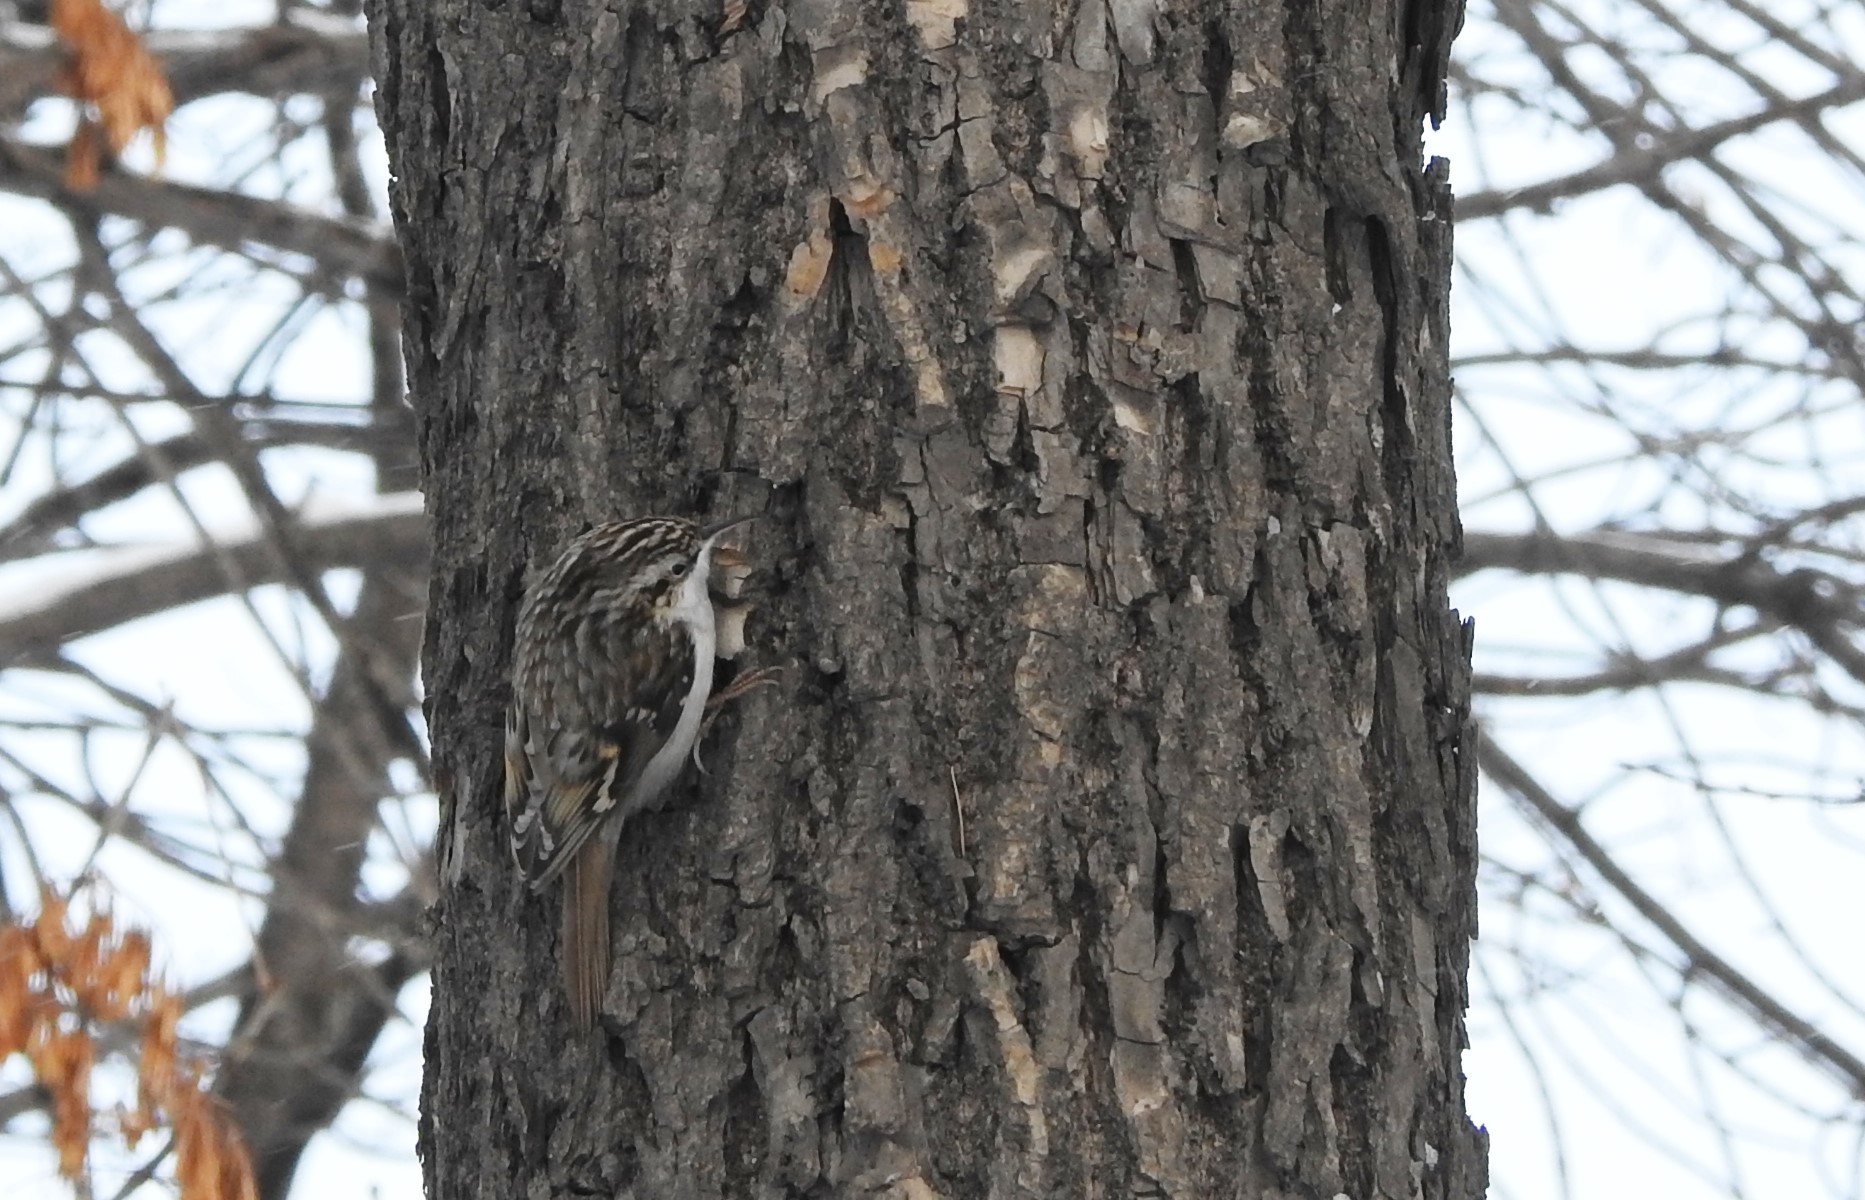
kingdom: Animalia
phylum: Chordata
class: Aves
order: Passeriformes
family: Certhiidae
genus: Certhia
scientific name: Certhia familiaris
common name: Eurasian treecreeper
